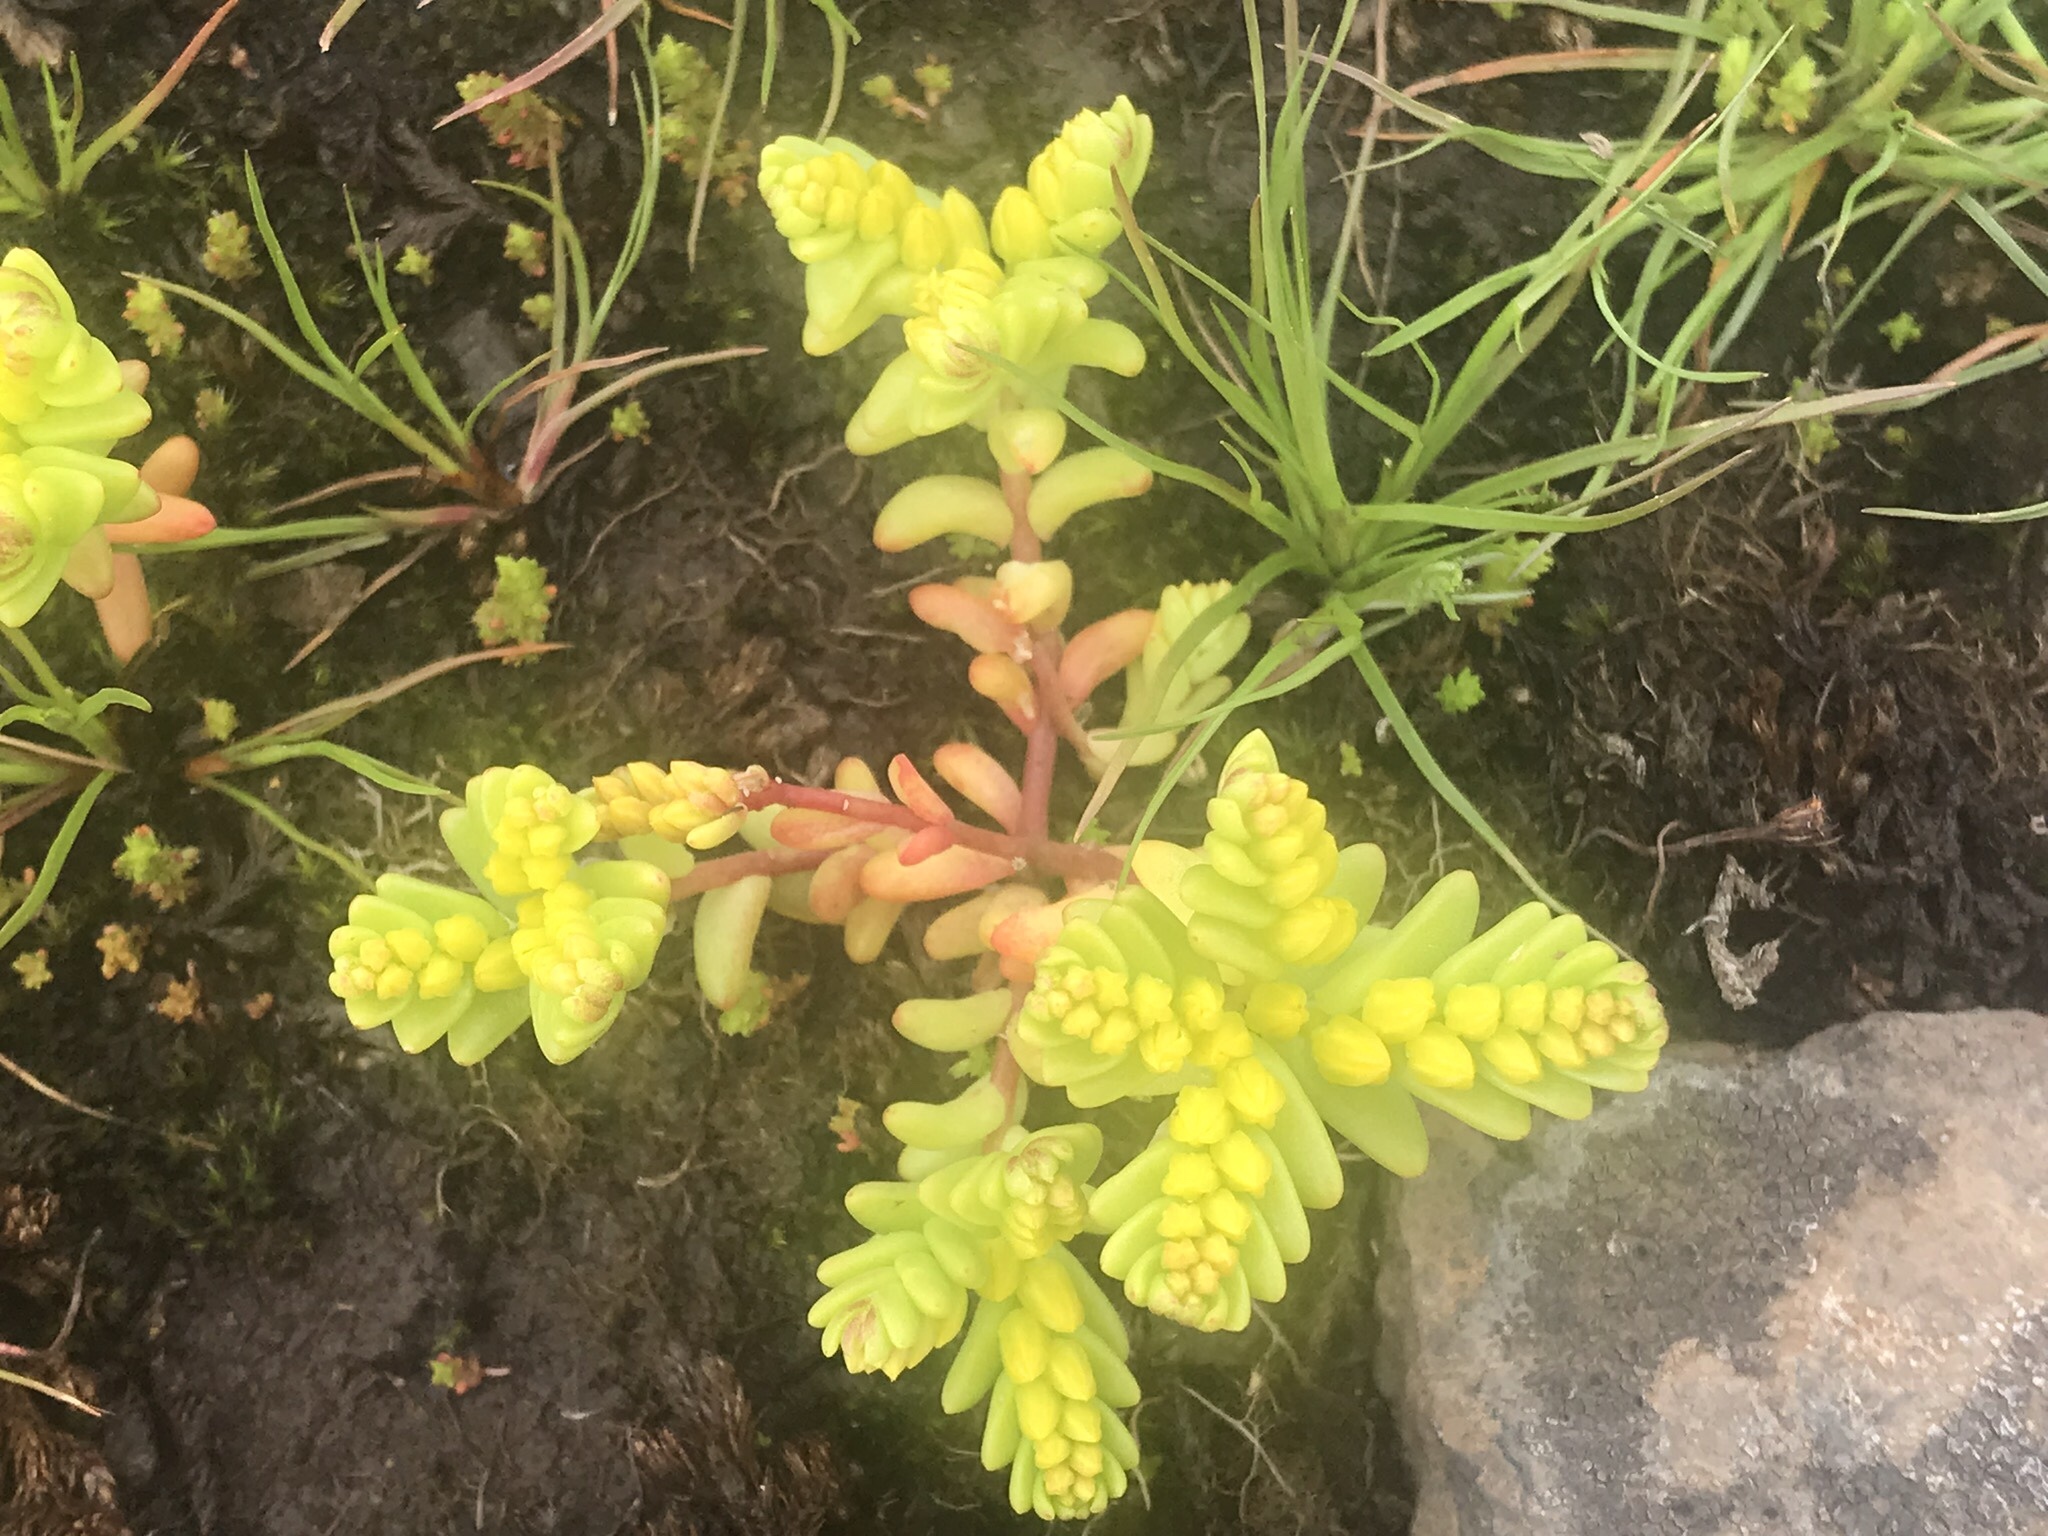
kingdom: Plantae
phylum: Tracheophyta
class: Magnoliopsida
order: Saxifragales
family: Crassulaceae
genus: Sedella
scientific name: Sedella pumila
